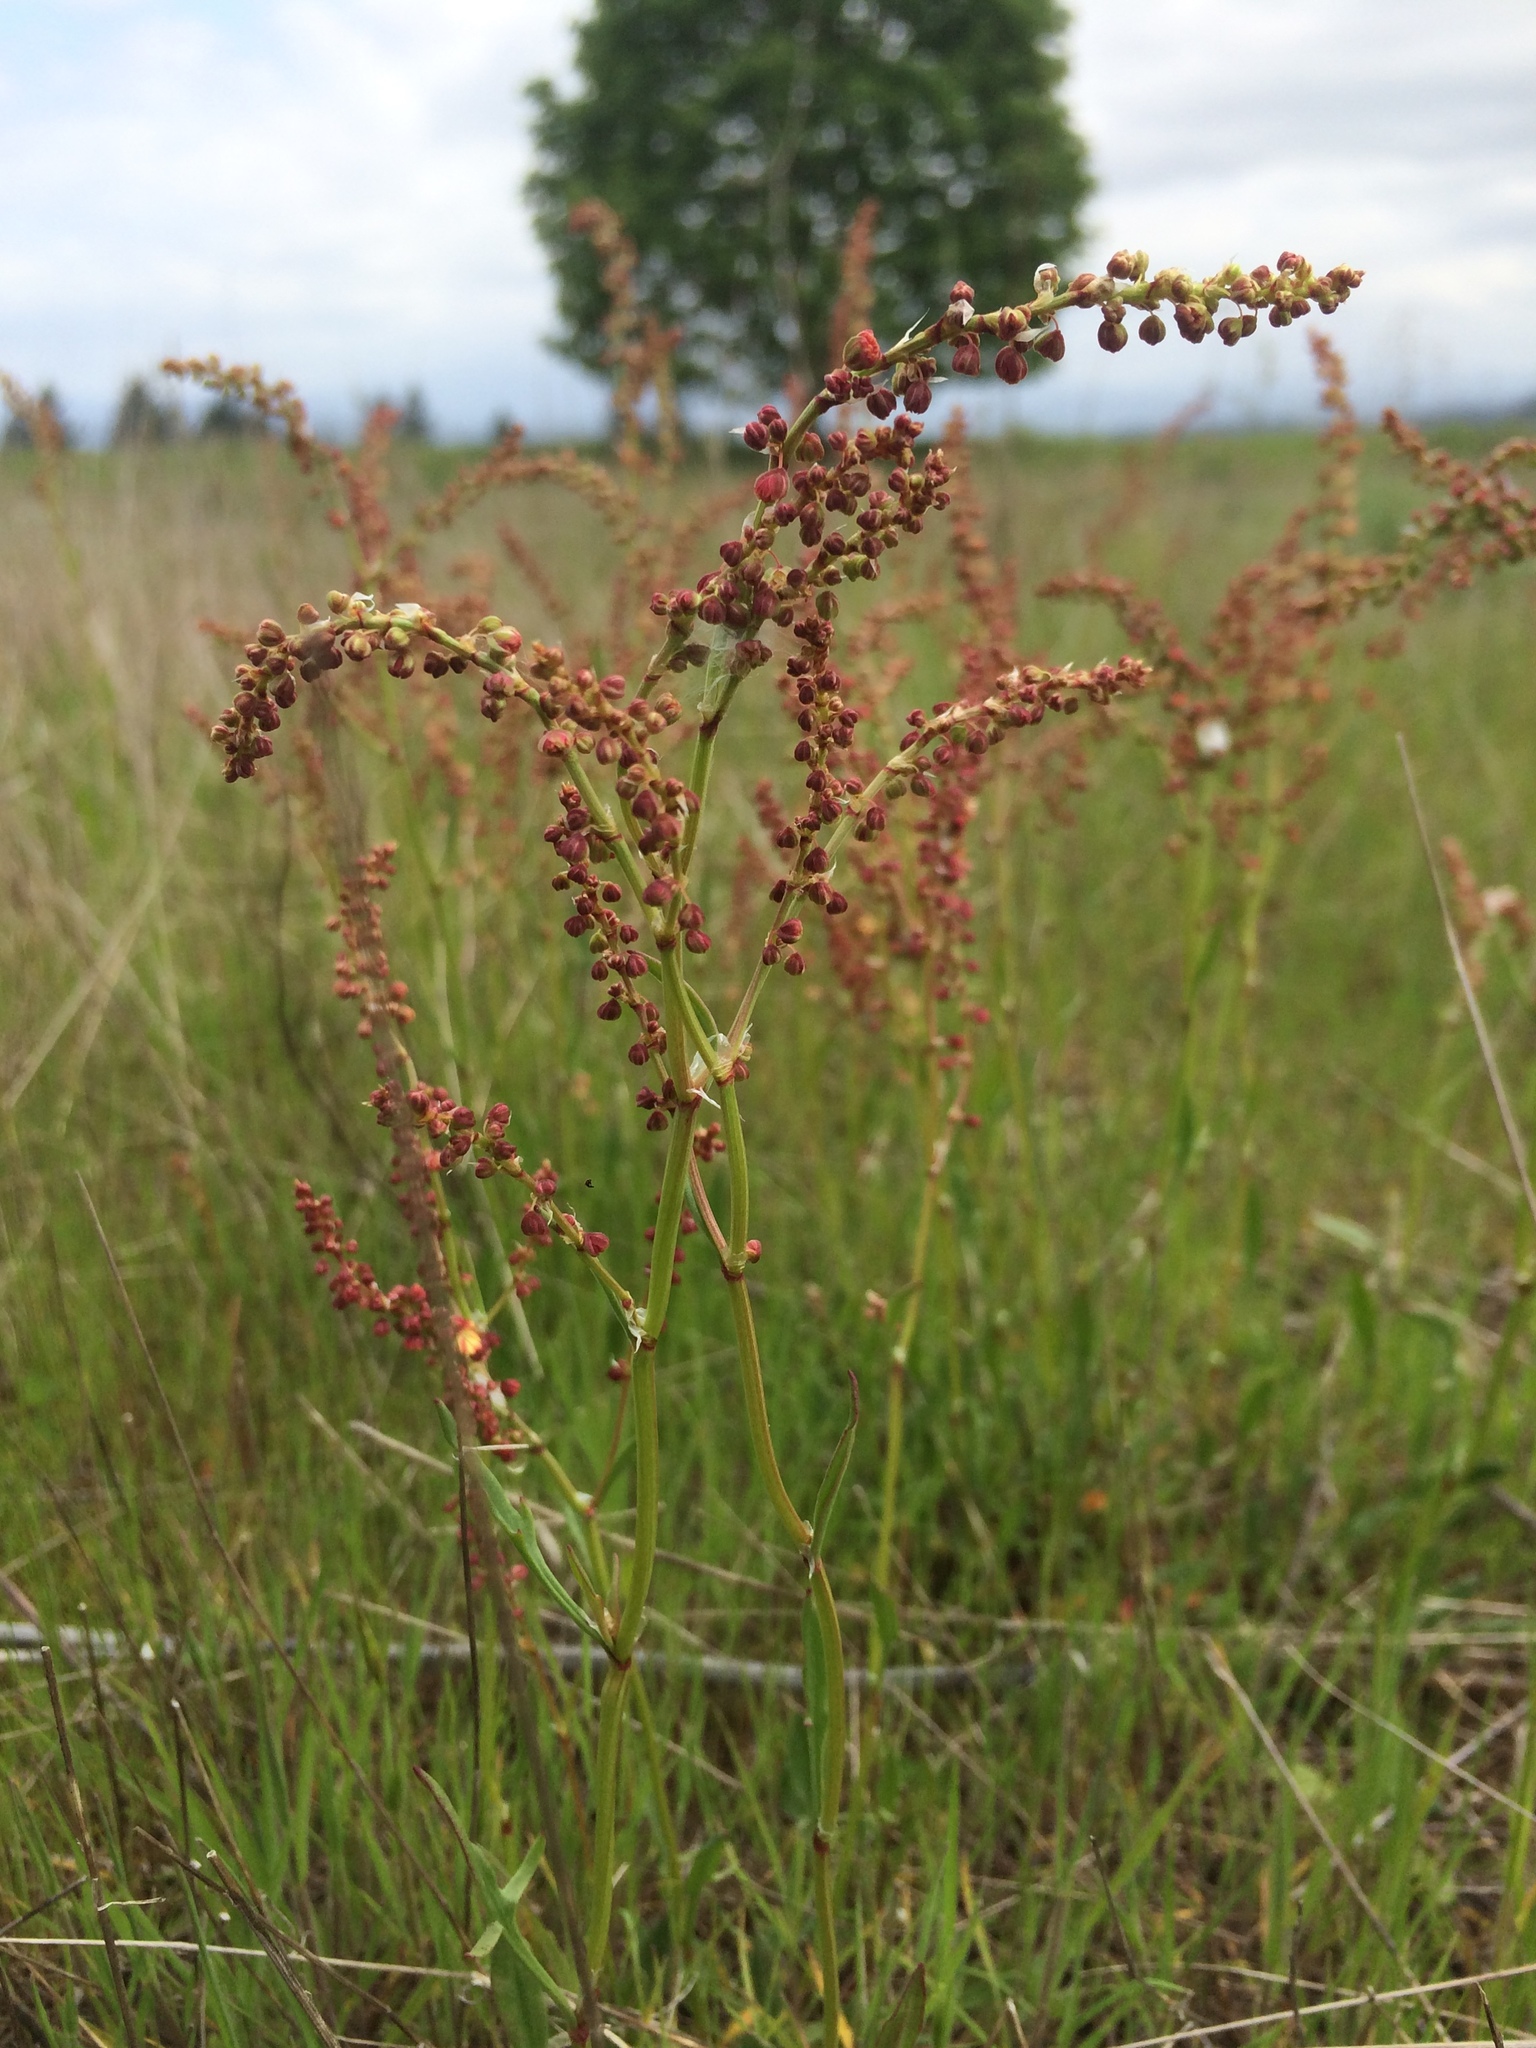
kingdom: Plantae
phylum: Tracheophyta
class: Magnoliopsida
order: Caryophyllales
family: Polygonaceae
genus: Rumex
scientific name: Rumex acetosella
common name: Common sheep sorrel
